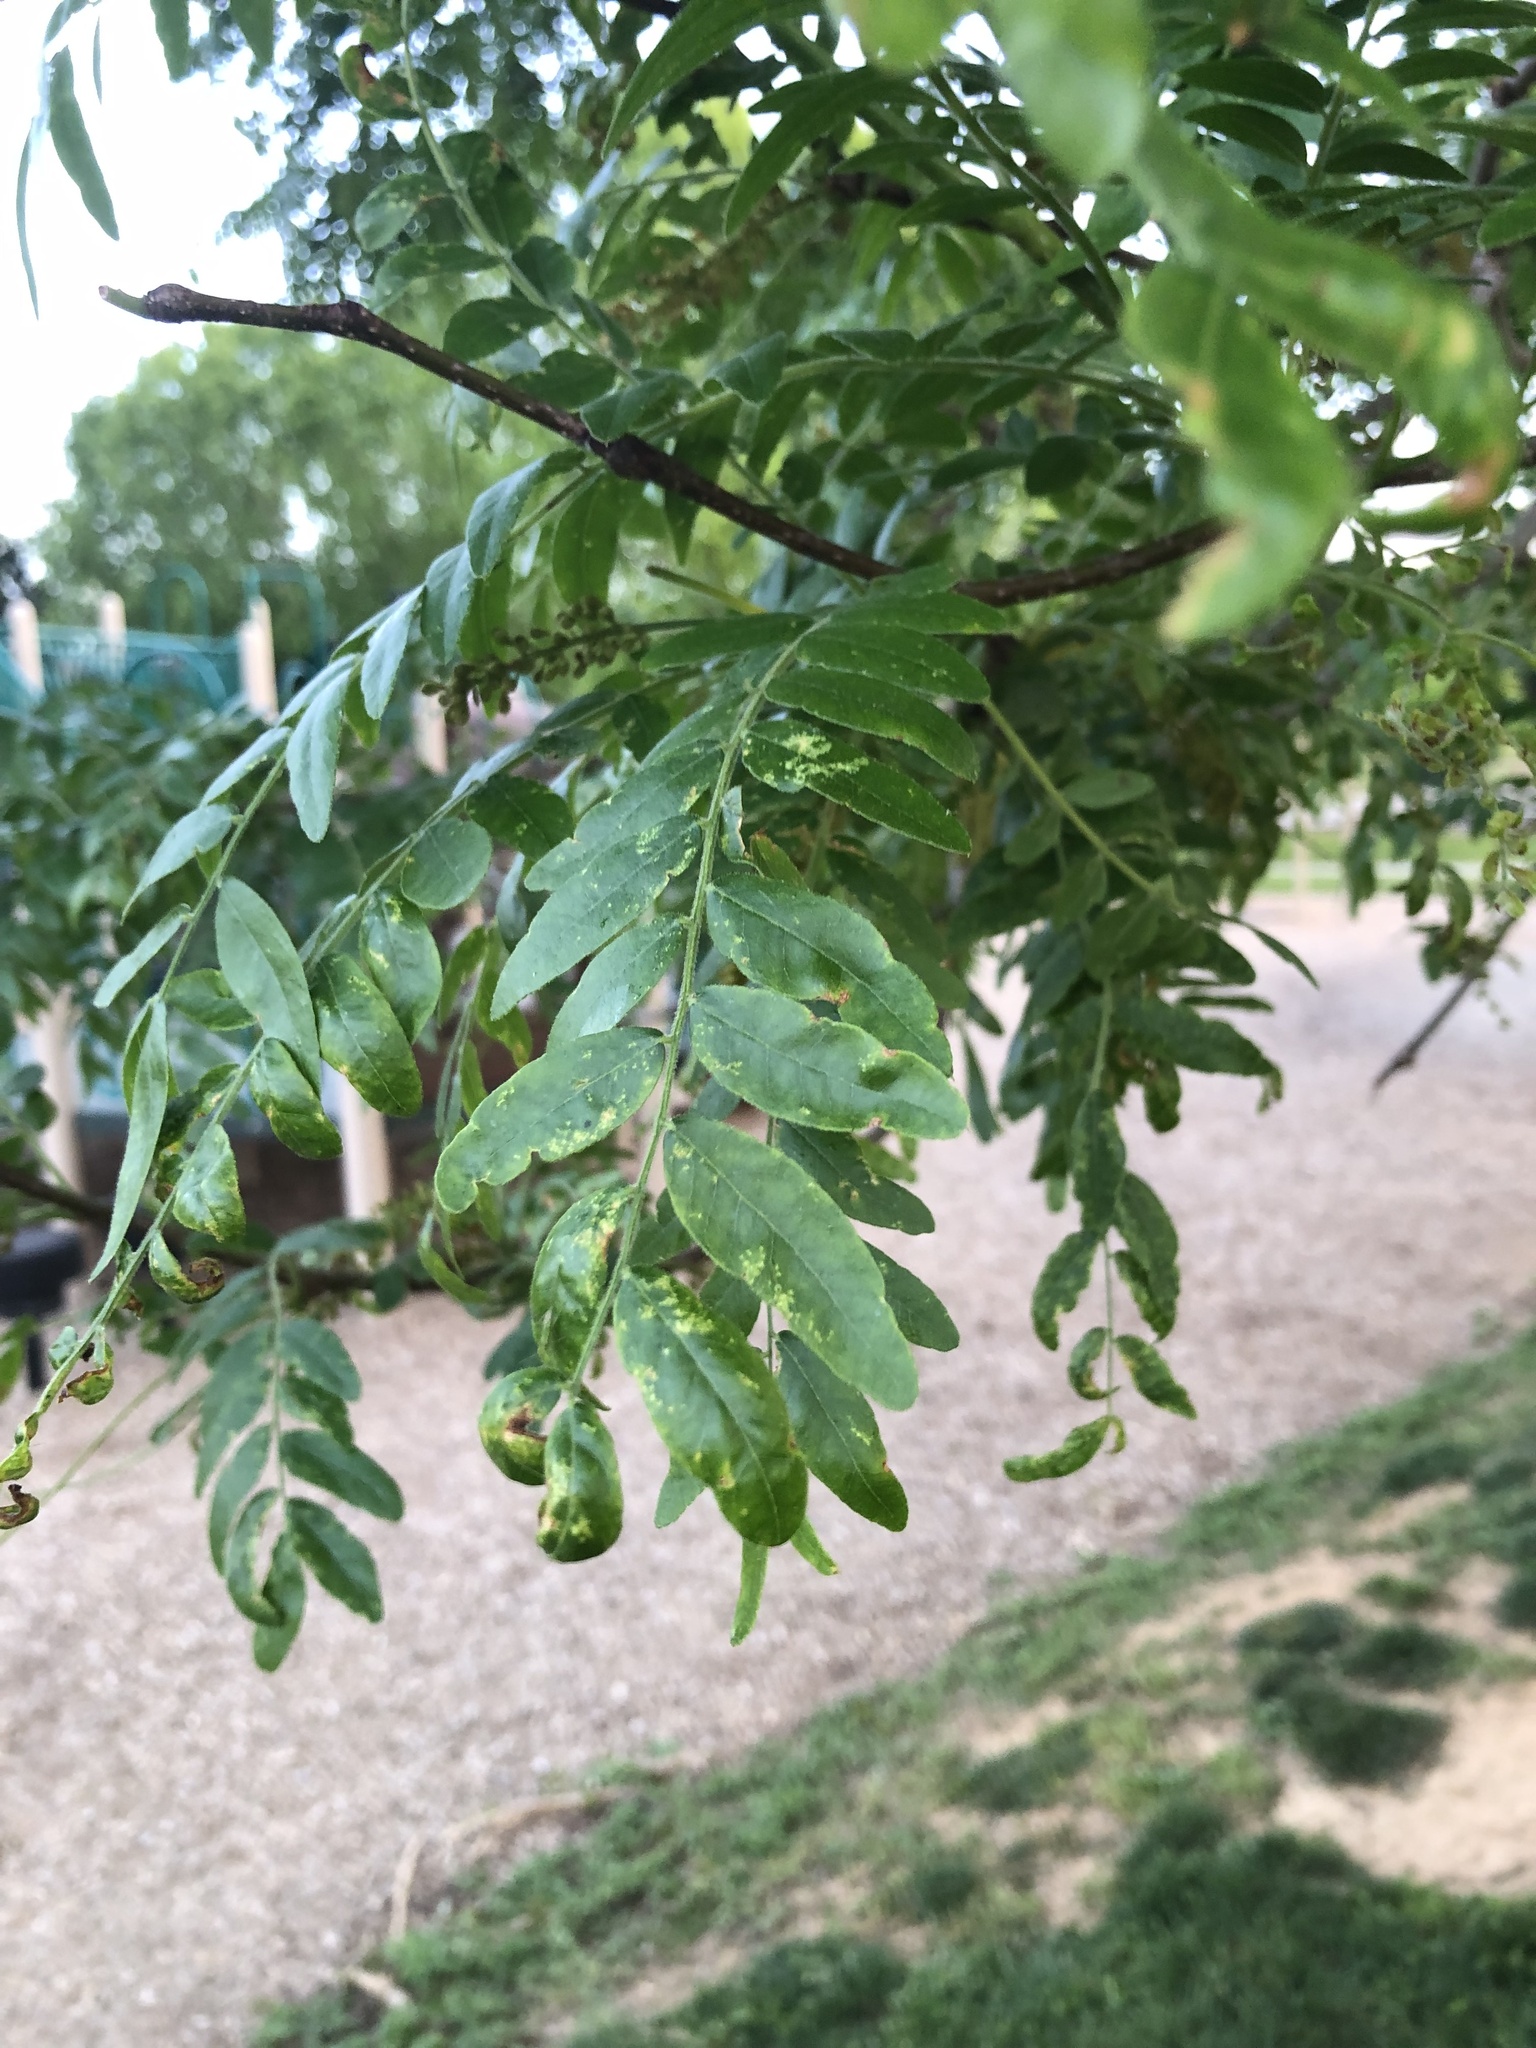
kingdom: Plantae
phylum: Tracheophyta
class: Magnoliopsida
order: Fabales
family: Fabaceae
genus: Gleditsia
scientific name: Gleditsia triacanthos
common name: Common honeylocust
